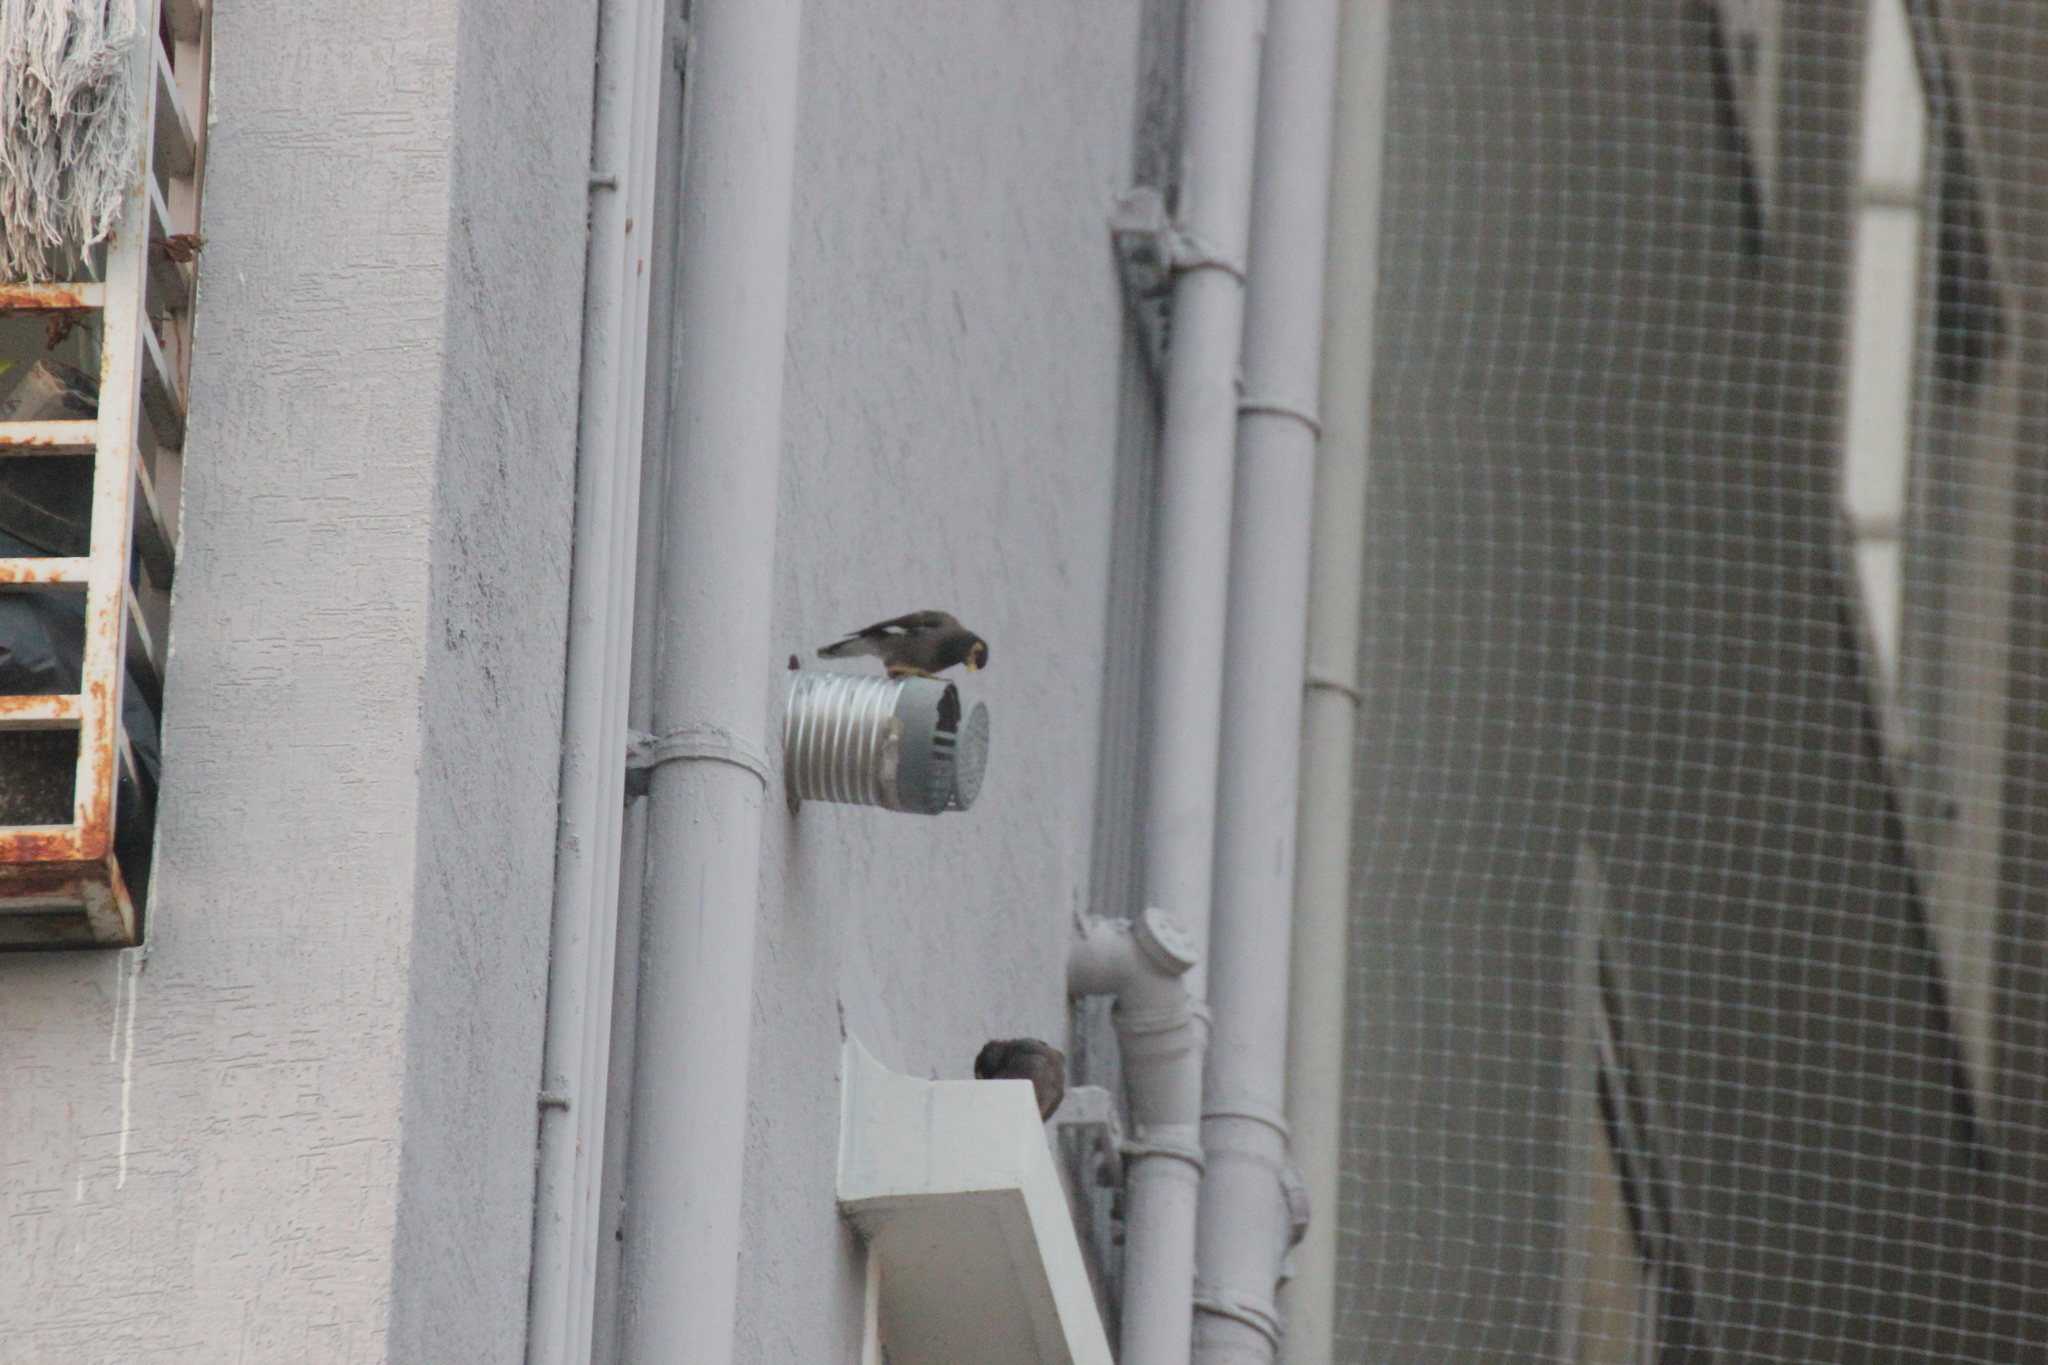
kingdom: Animalia
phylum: Chordata
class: Aves
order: Passeriformes
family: Sturnidae
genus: Acridotheres
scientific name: Acridotheres tristis
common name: Common myna
